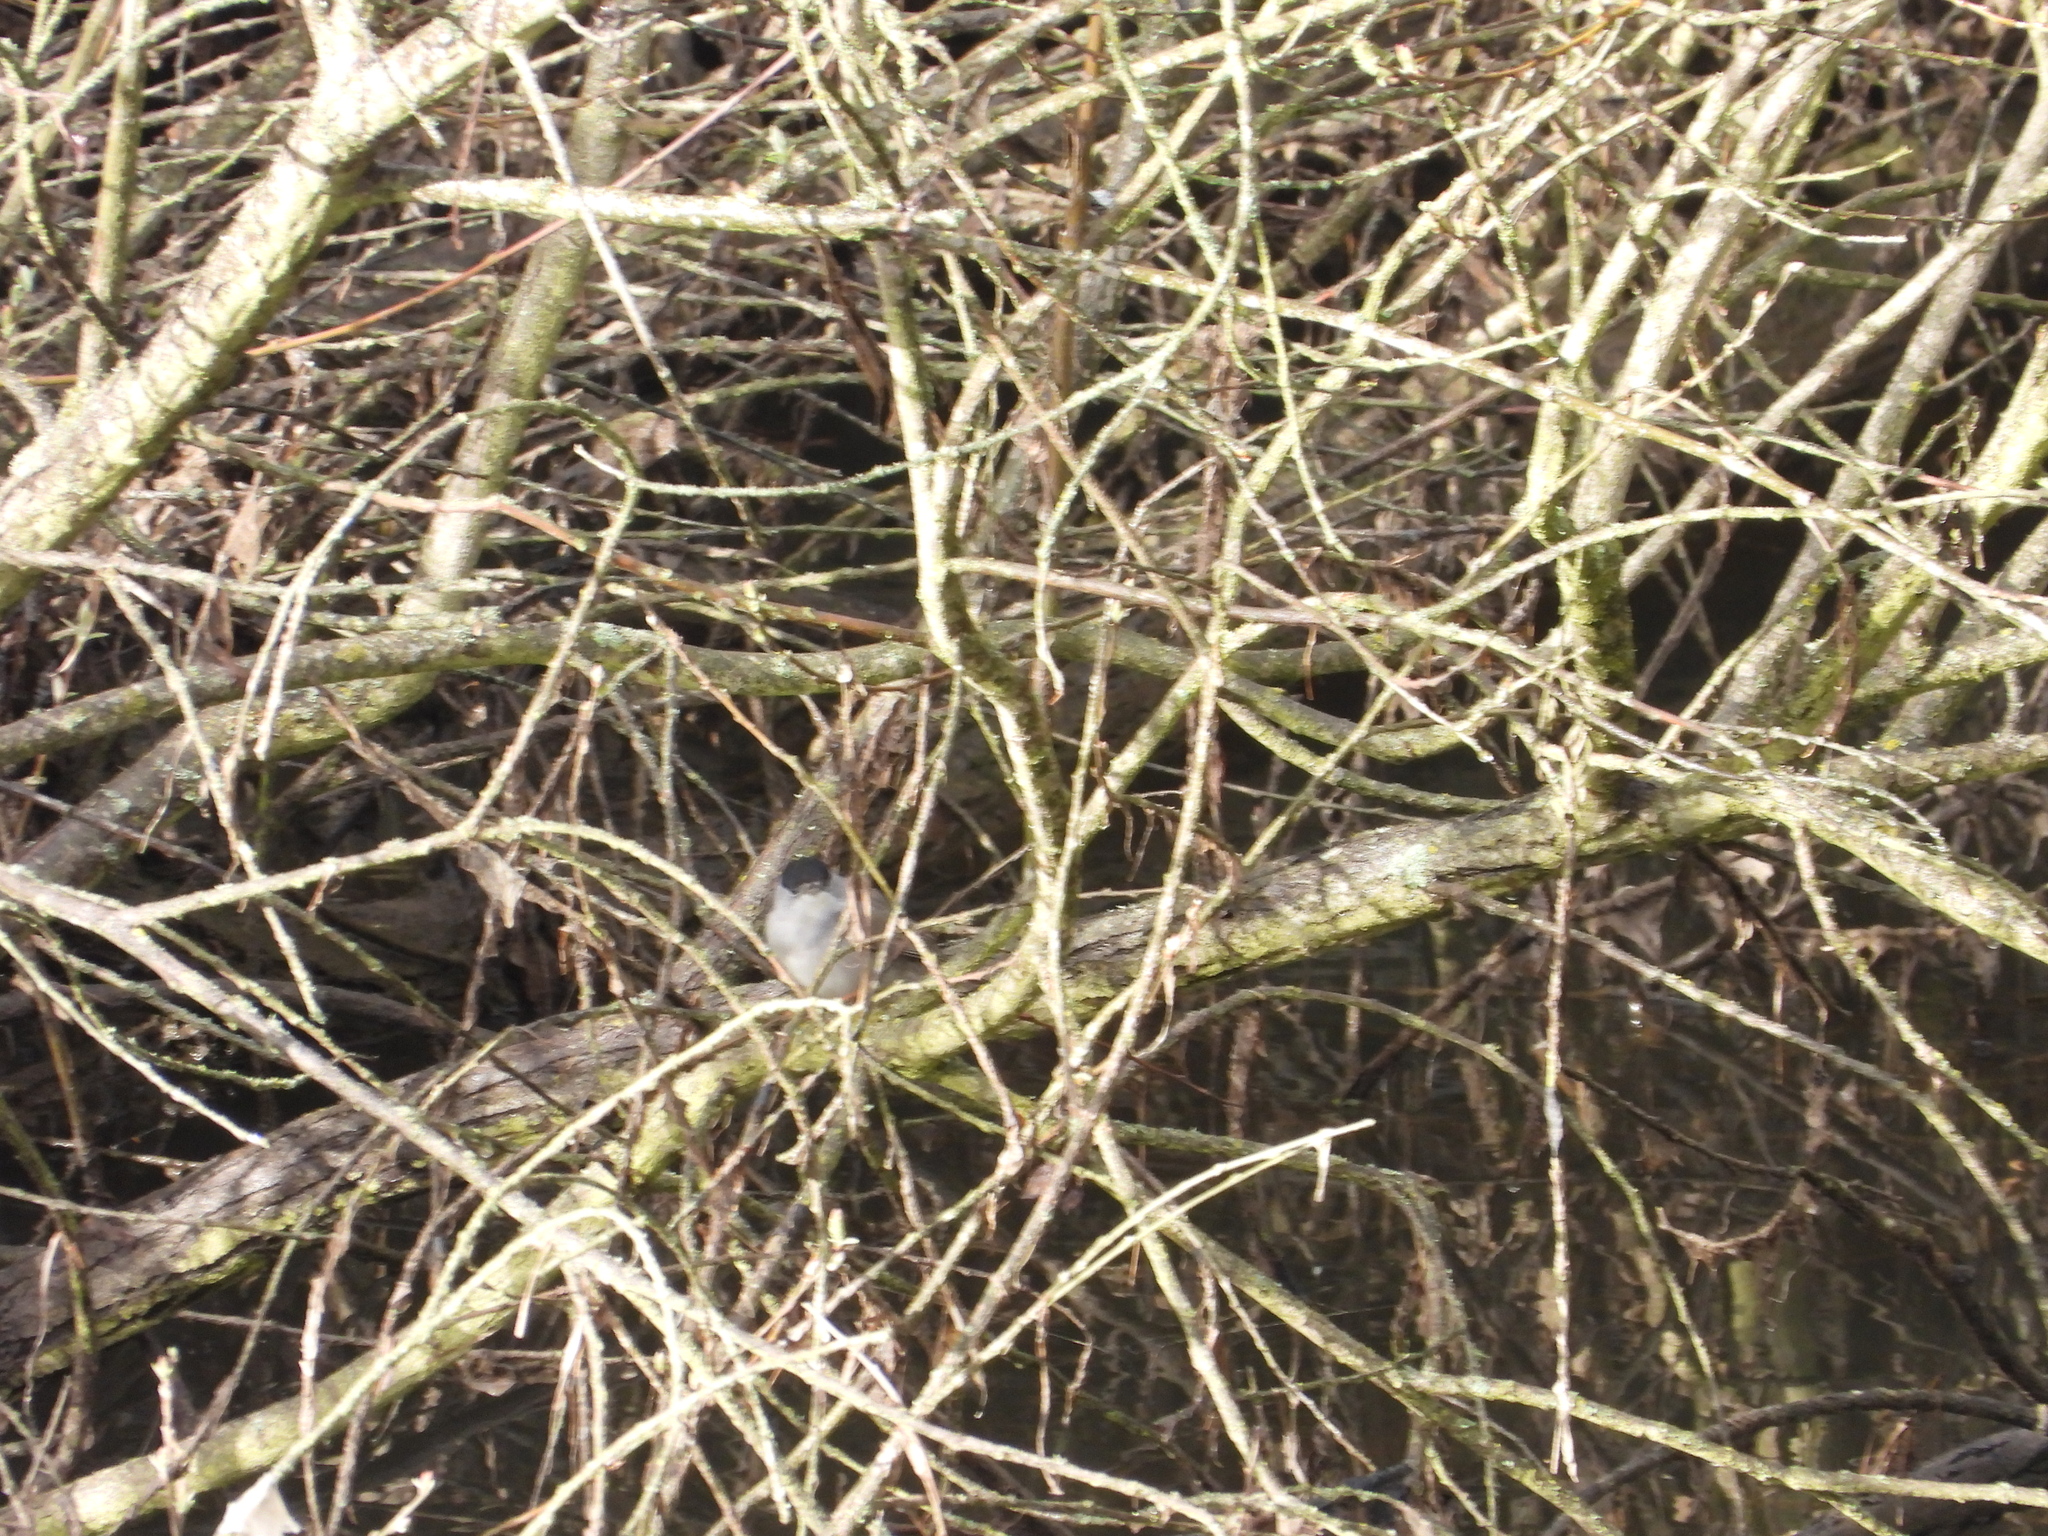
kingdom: Animalia
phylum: Chordata
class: Aves
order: Passeriformes
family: Sylviidae
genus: Sylvia
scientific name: Sylvia atricapilla
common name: Eurasian blackcap
